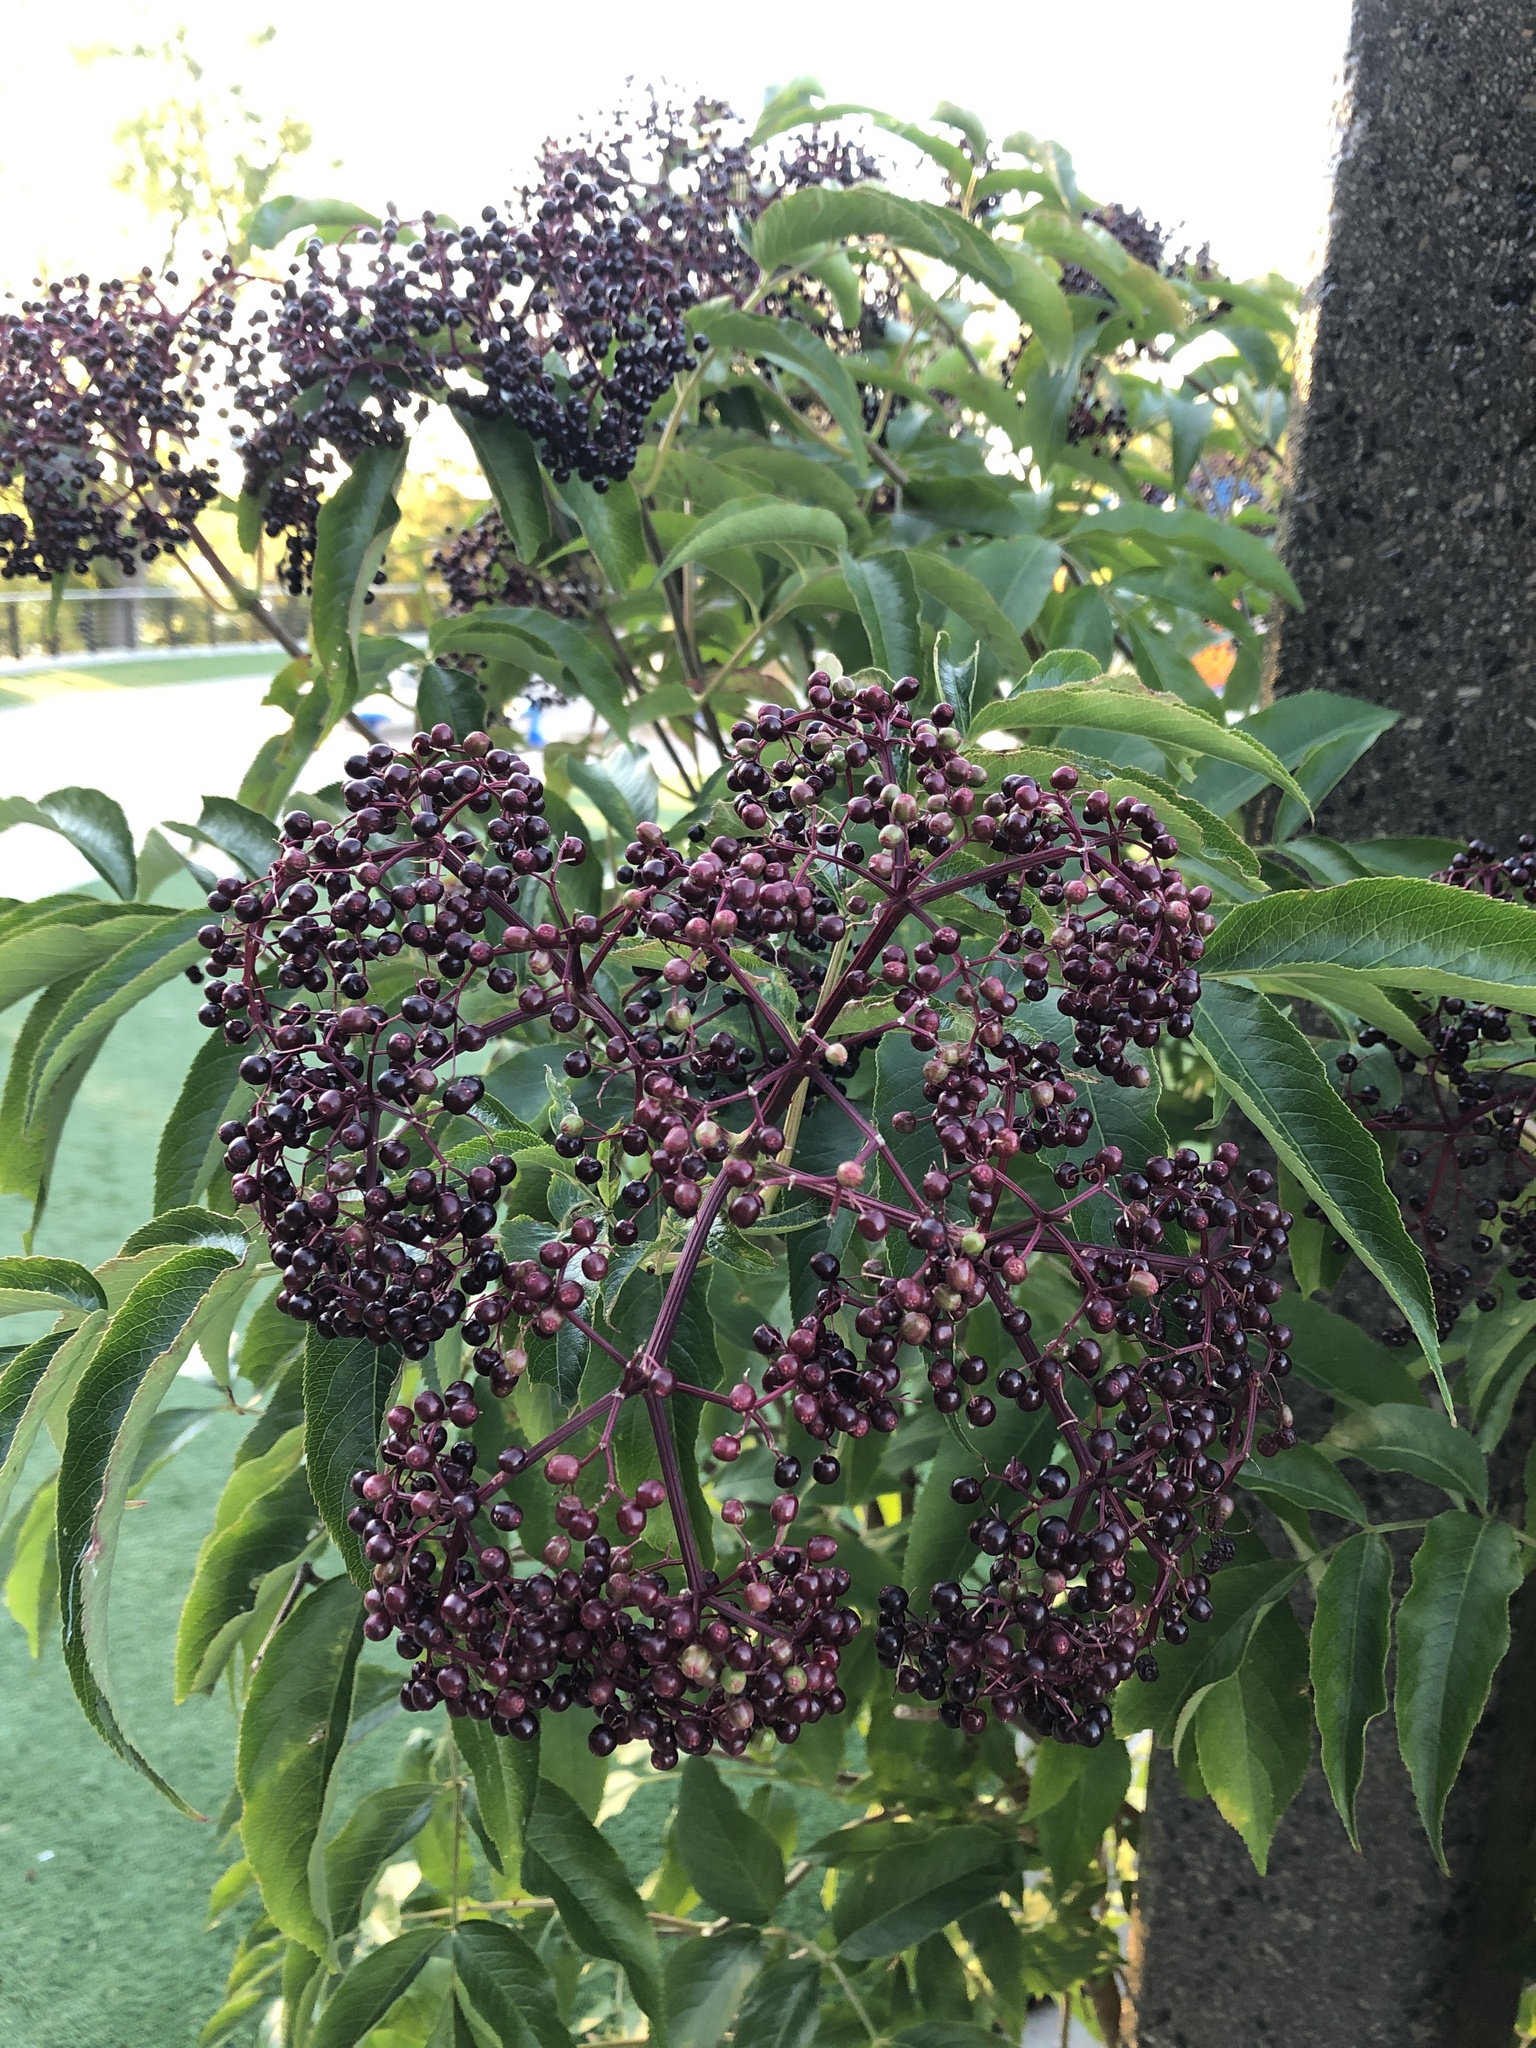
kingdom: Plantae
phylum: Tracheophyta
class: Magnoliopsida
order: Dipsacales
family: Viburnaceae
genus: Sambucus
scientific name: Sambucus canadensis
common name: American elder
